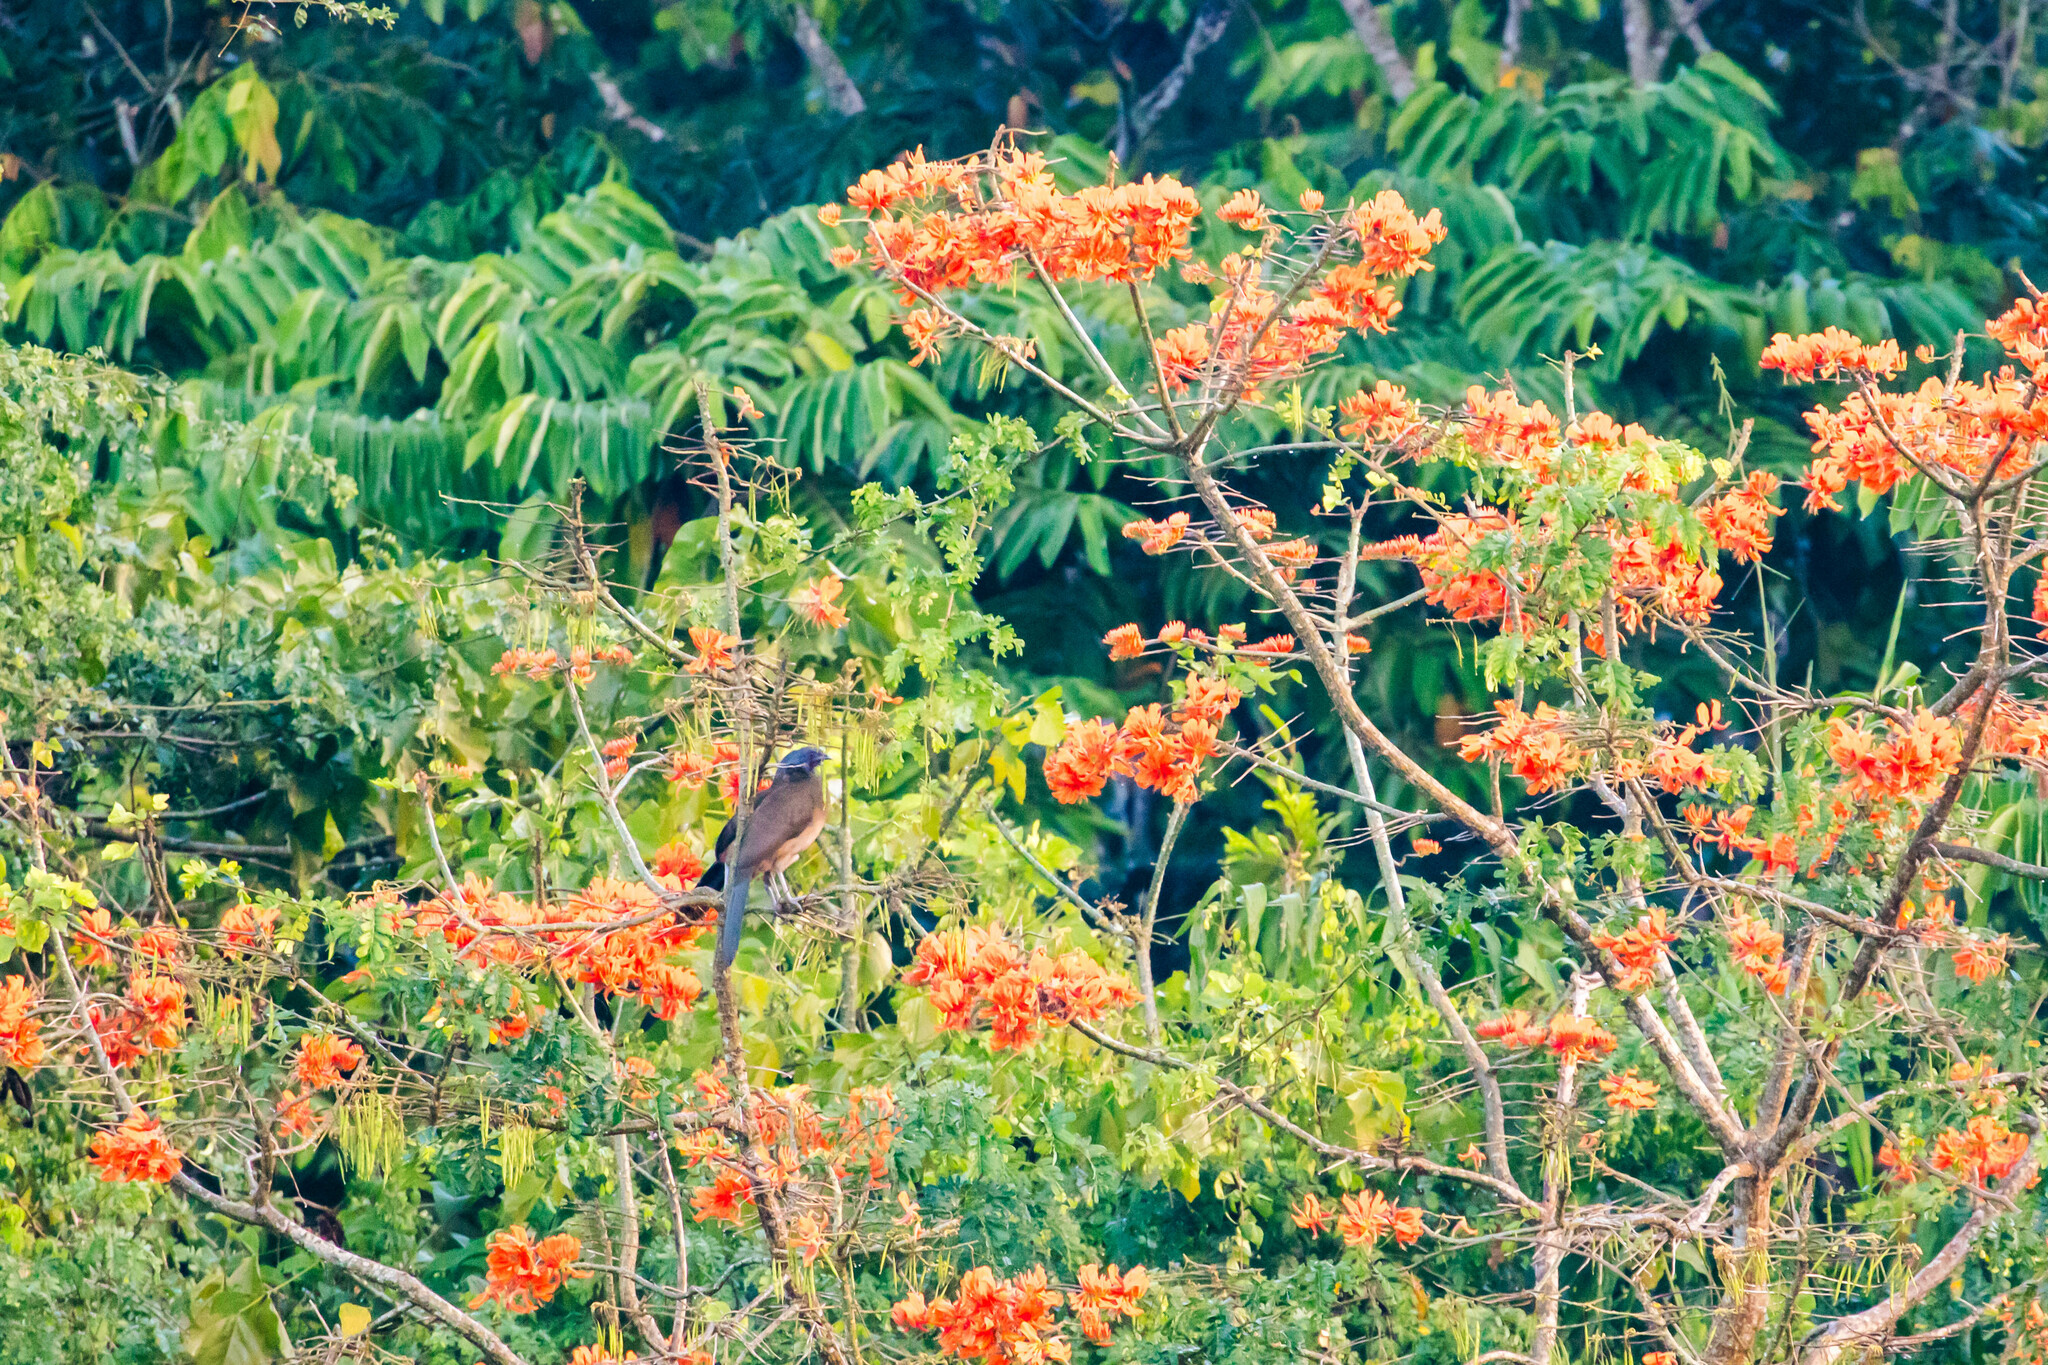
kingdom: Animalia
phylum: Chordata
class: Aves
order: Galliformes
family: Cracidae
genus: Ortalis
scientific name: Ortalis ruficauda
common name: Rufous-vented chachalaca
